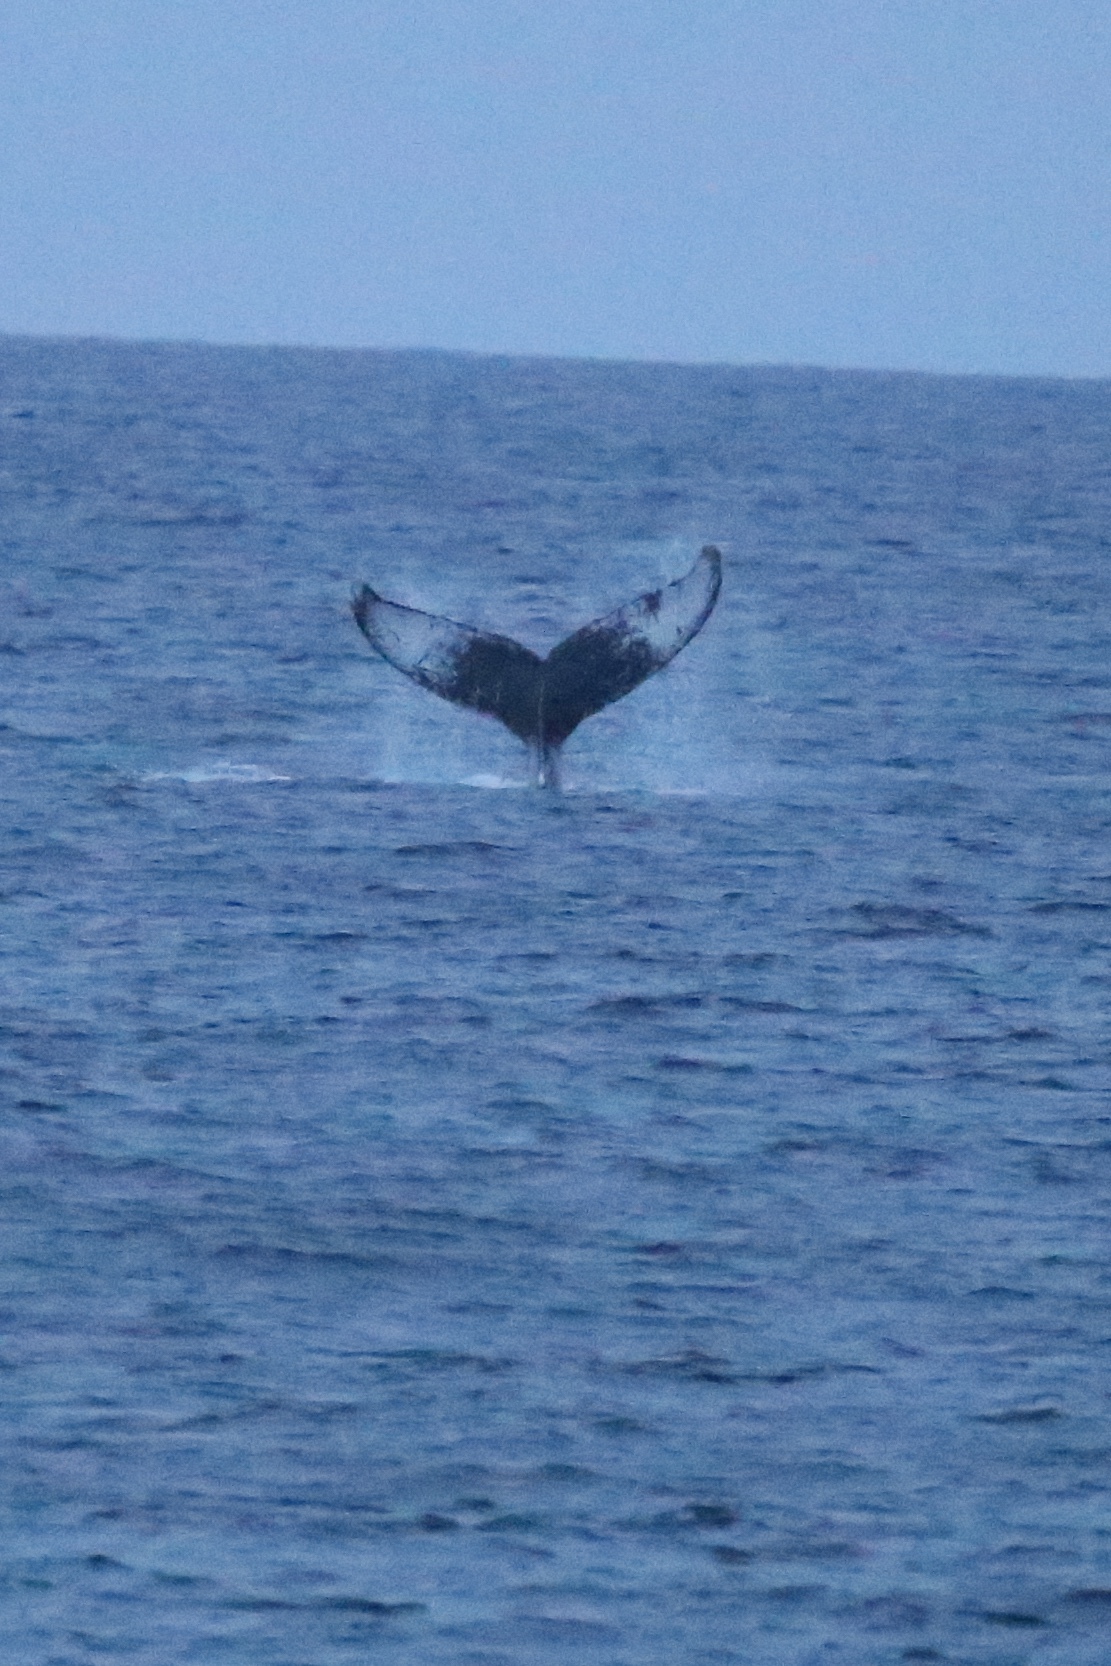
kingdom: Animalia
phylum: Chordata
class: Mammalia
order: Cetacea
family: Balaenopteridae
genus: Megaptera
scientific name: Megaptera novaeangliae
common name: Humpback whale
